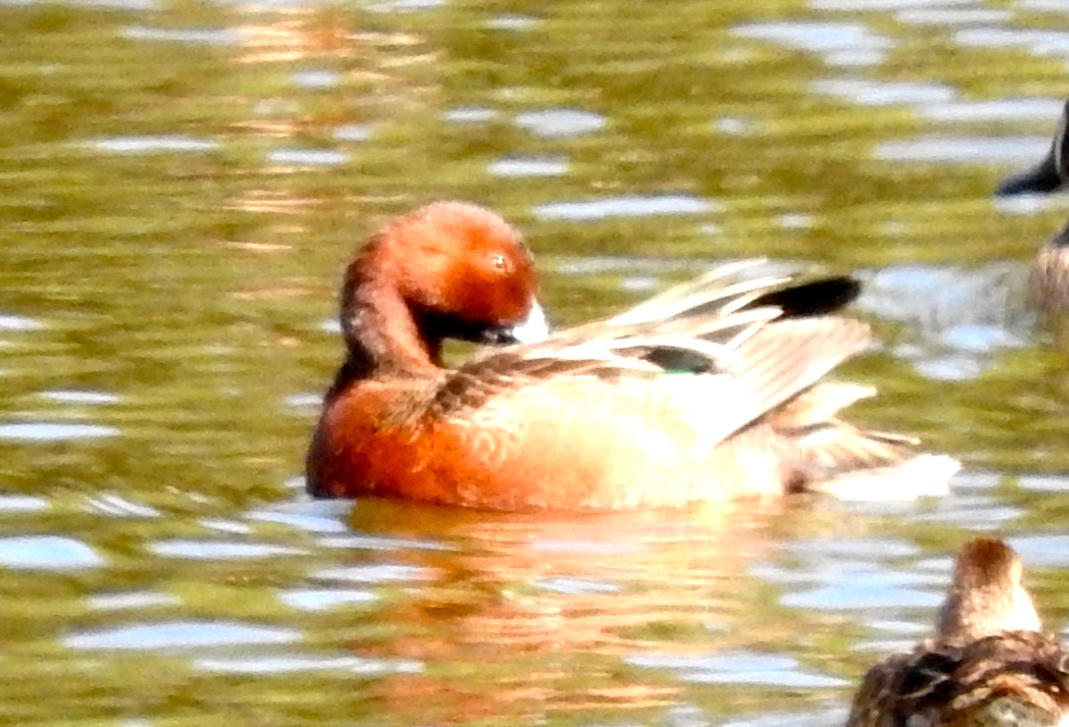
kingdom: Animalia
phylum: Chordata
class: Aves
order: Anseriformes
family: Anatidae
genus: Spatula
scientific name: Spatula cyanoptera
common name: Cinnamon teal
